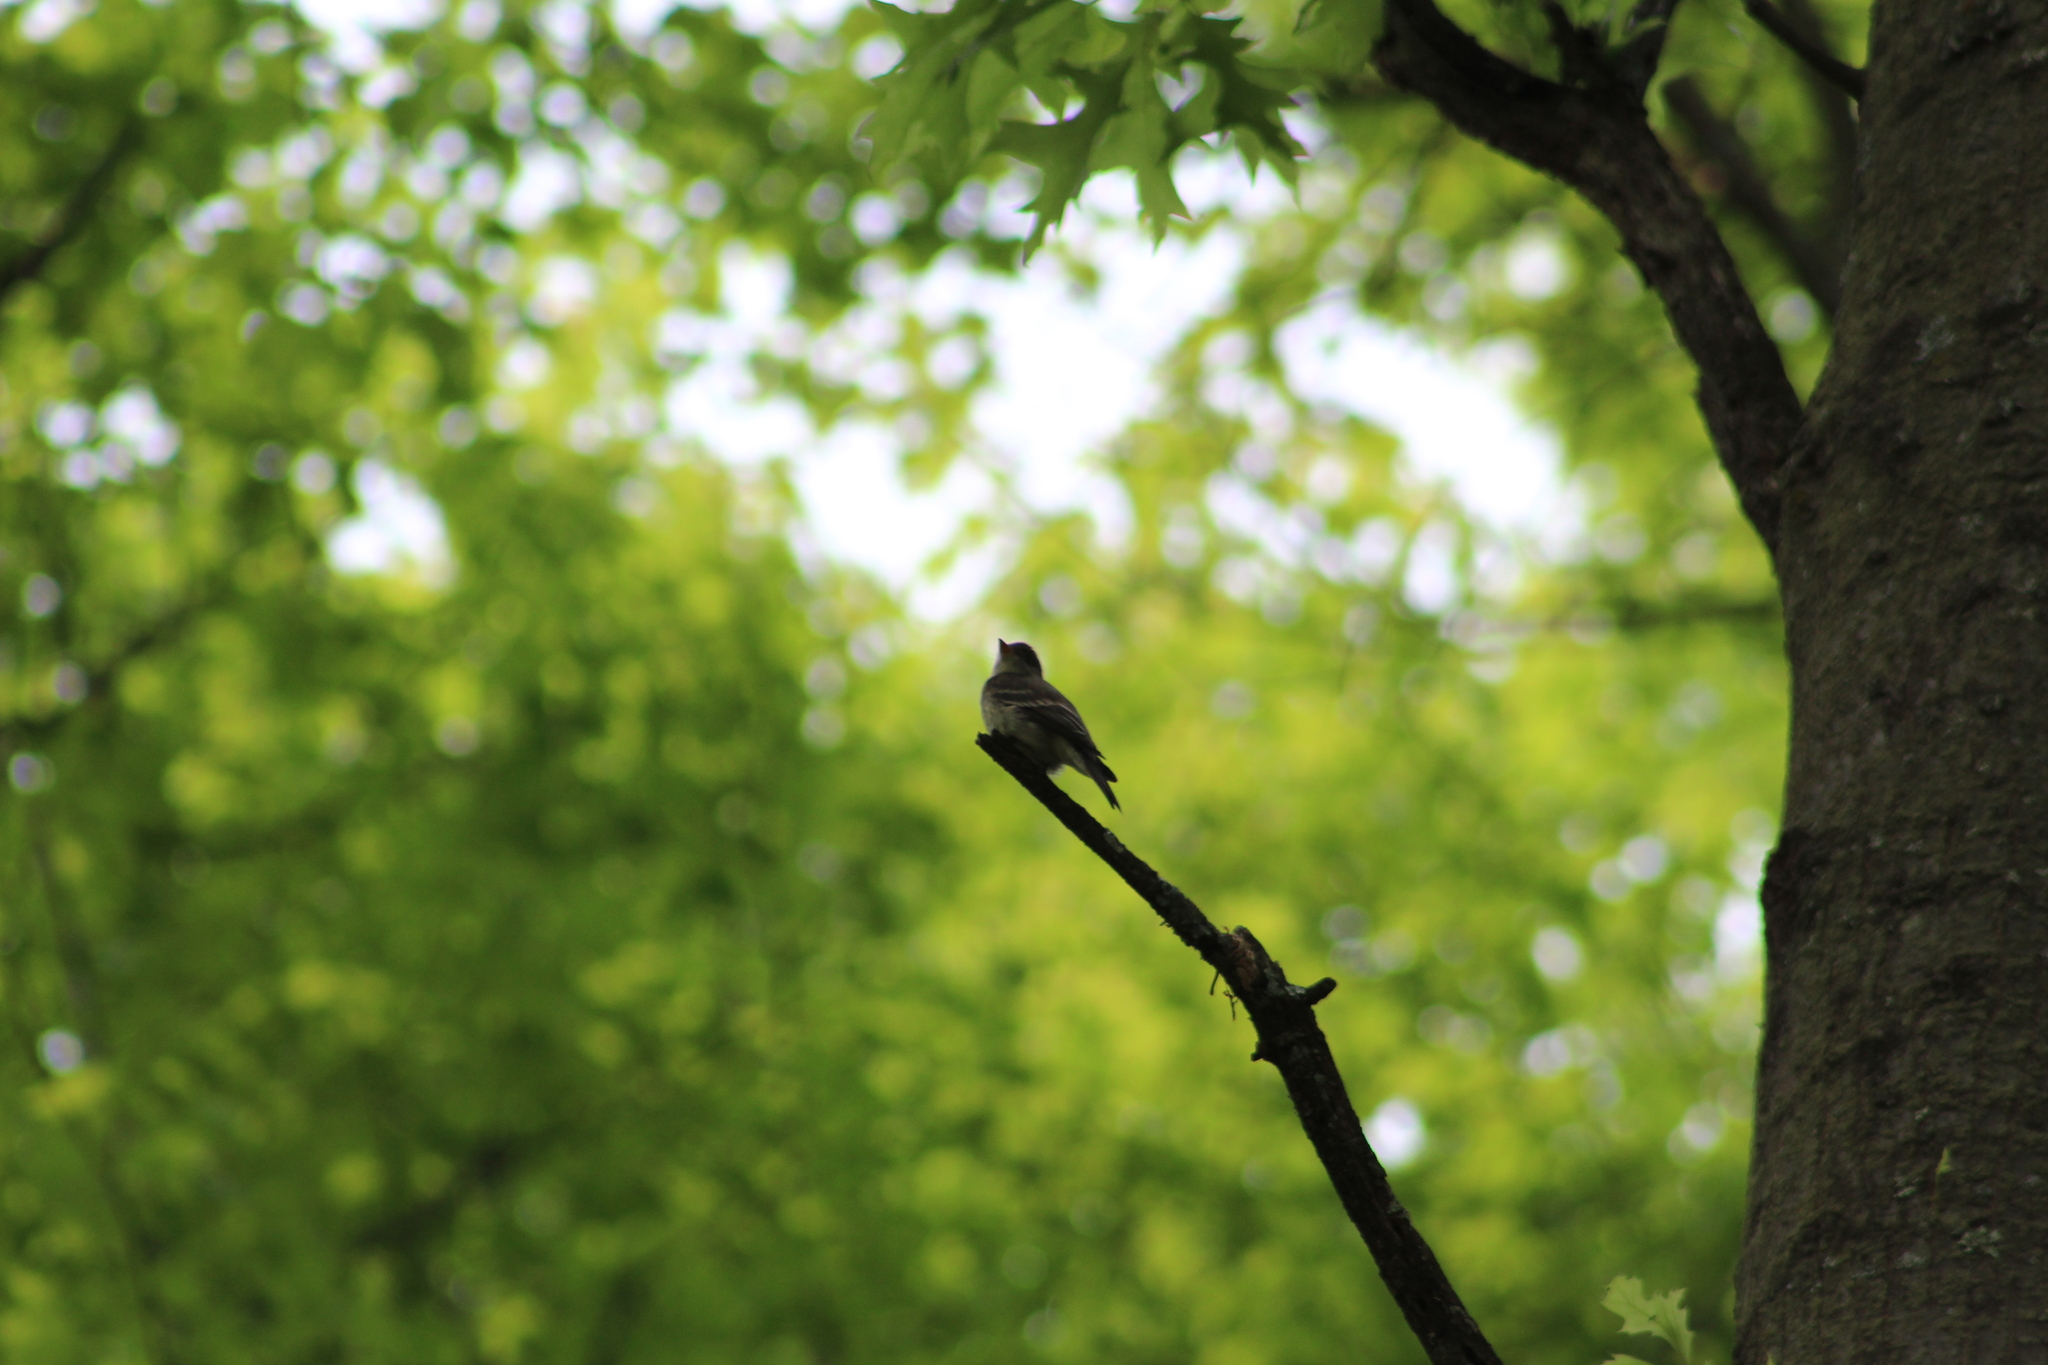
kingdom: Animalia
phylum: Chordata
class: Aves
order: Passeriformes
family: Tyrannidae
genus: Contopus
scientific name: Contopus virens
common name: Eastern wood-pewee
